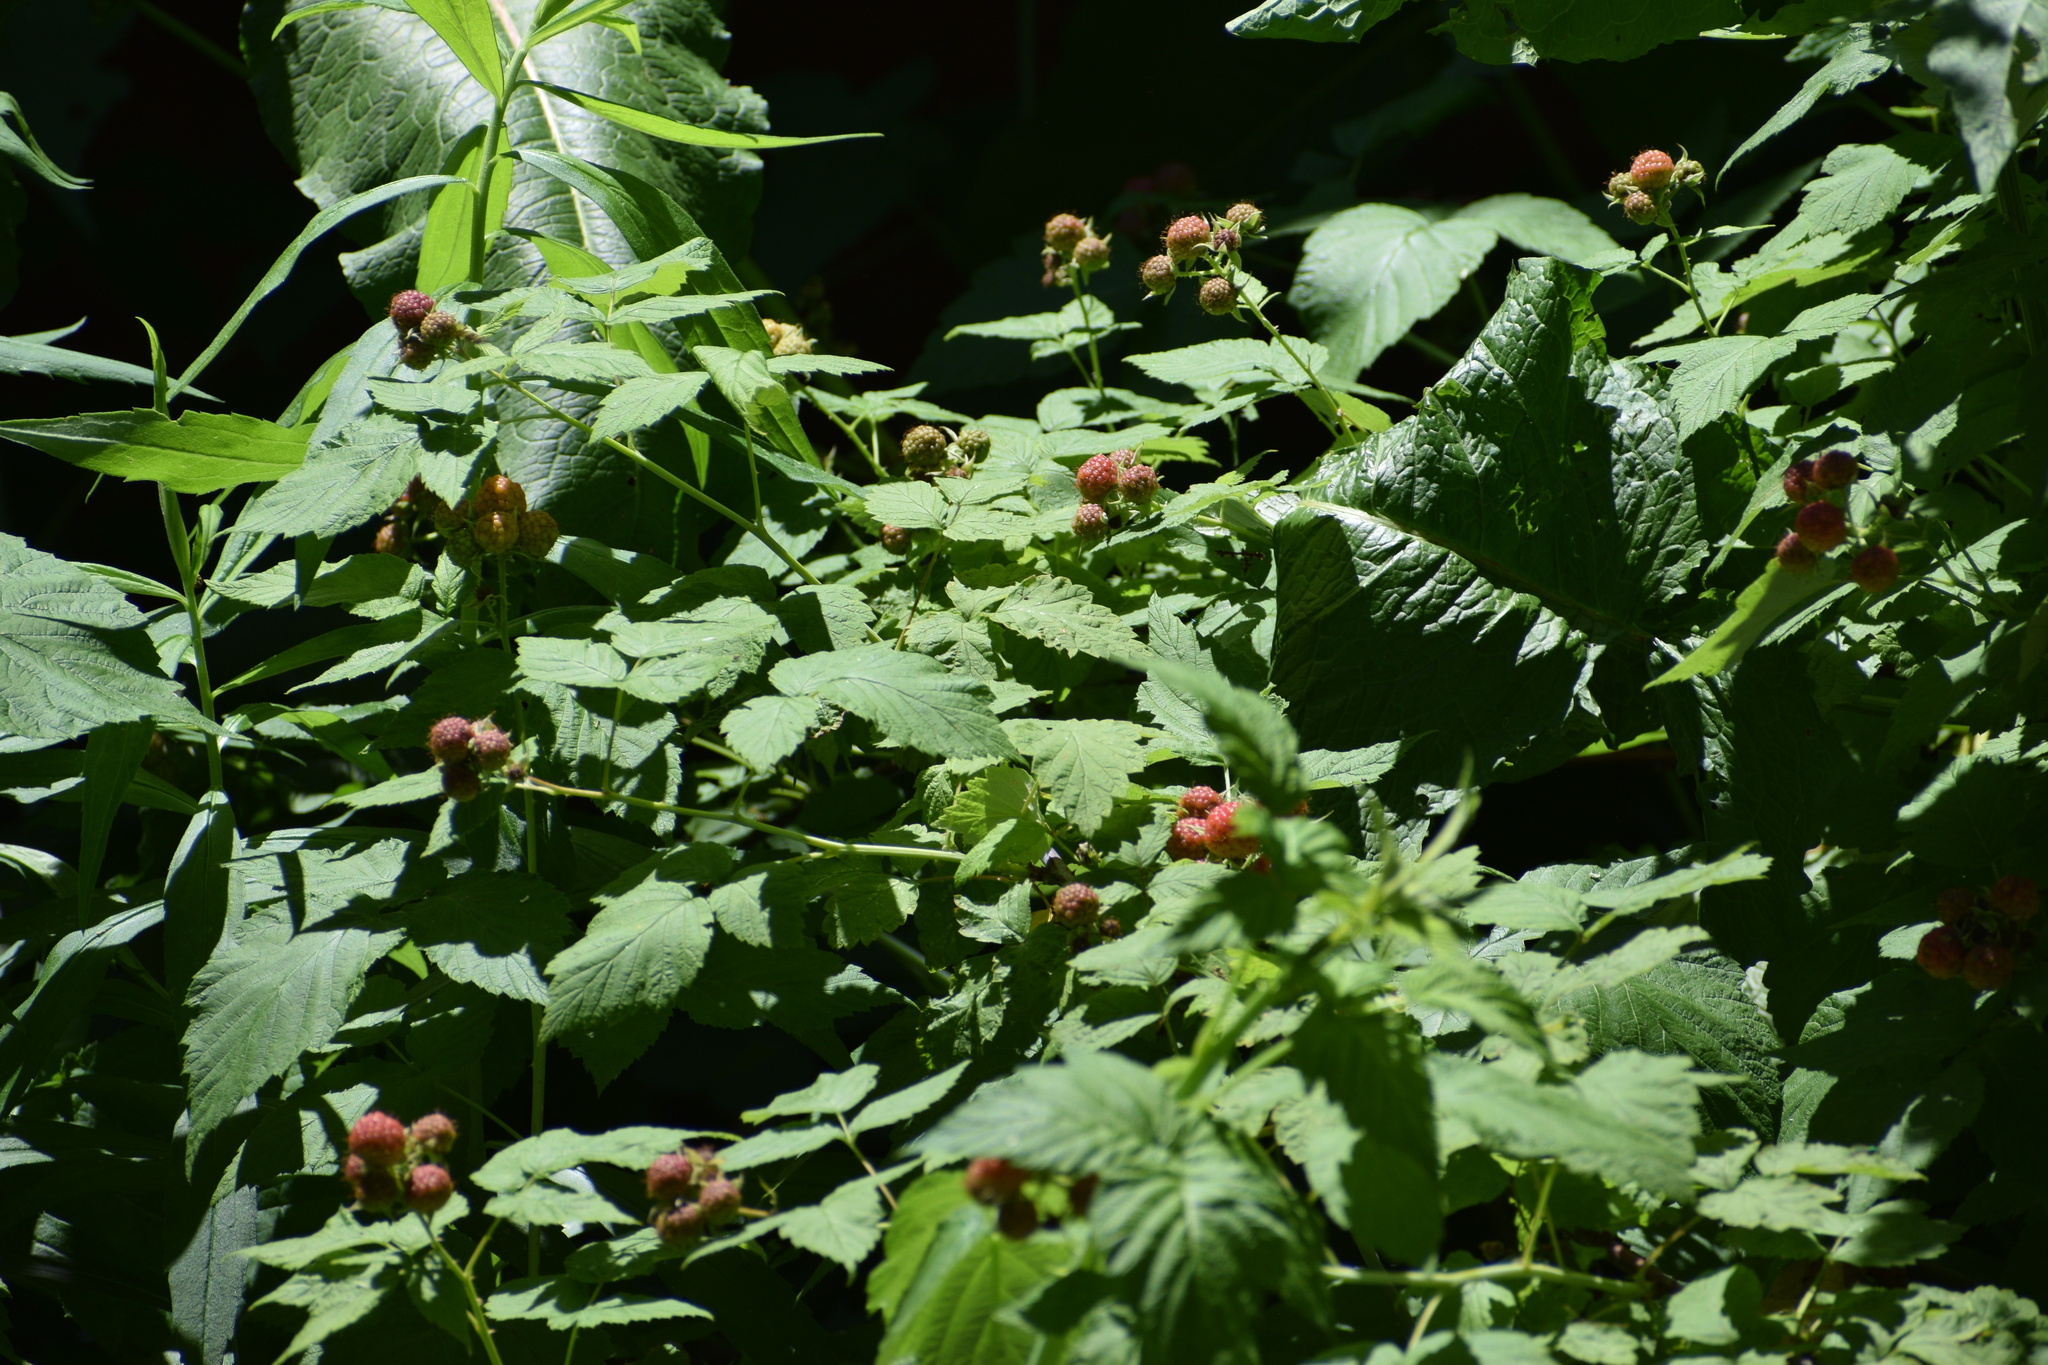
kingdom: Plantae
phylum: Tracheophyta
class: Magnoliopsida
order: Rosales
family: Rosaceae
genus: Rubus
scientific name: Rubus occidentalis
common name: Black raspberry
